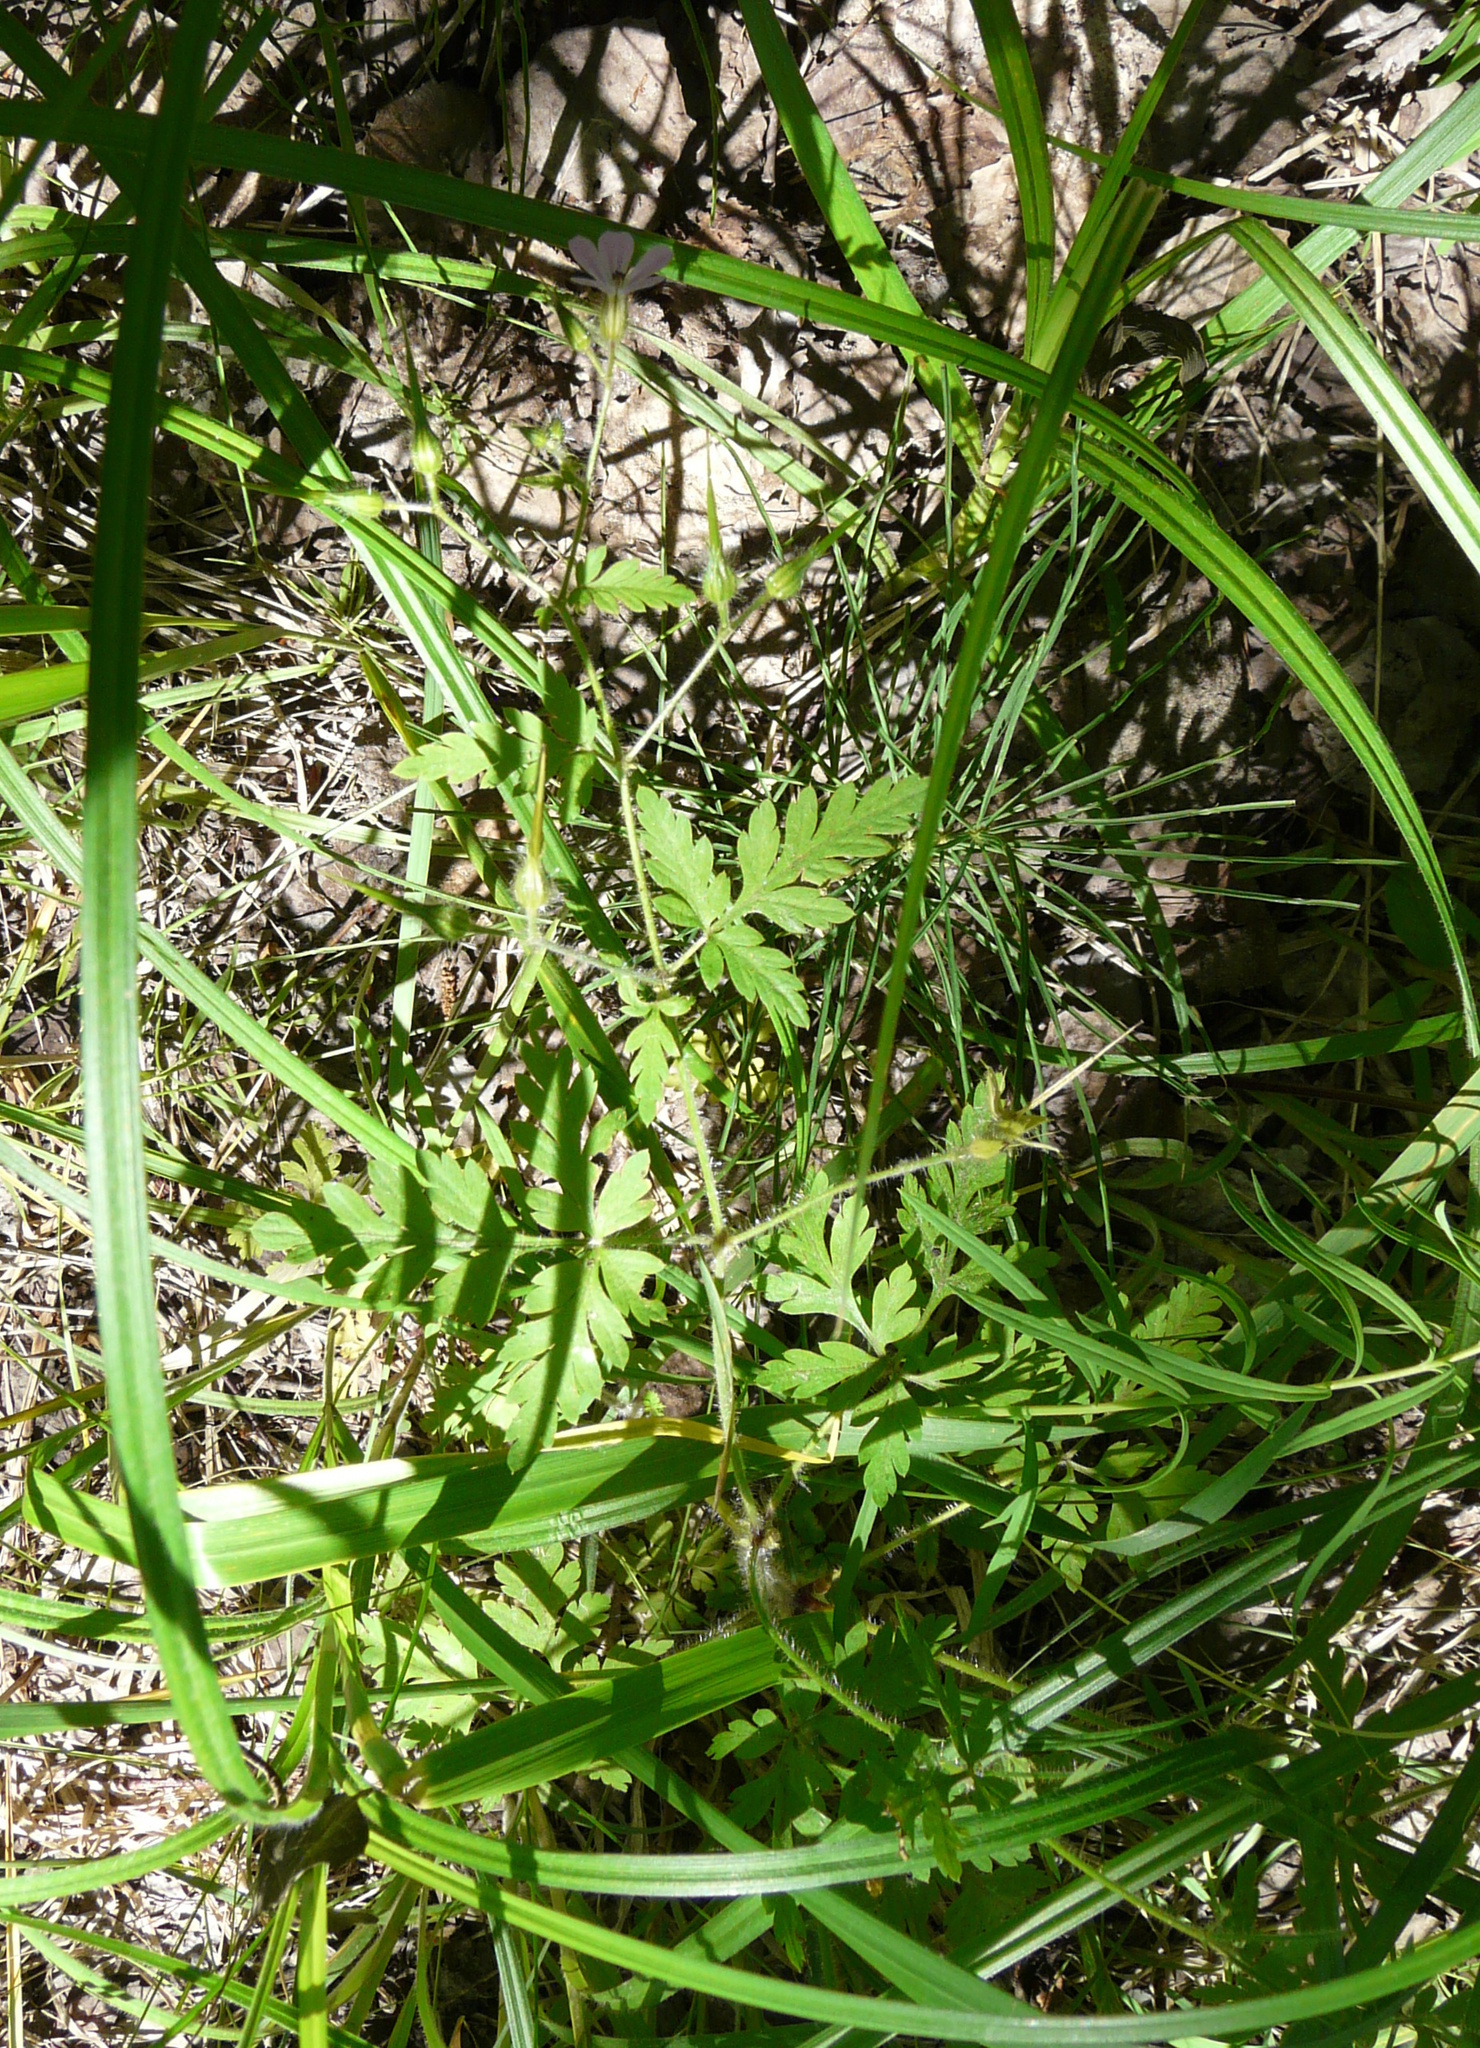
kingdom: Plantae
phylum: Tracheophyta
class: Magnoliopsida
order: Geraniales
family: Geraniaceae
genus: Geranium
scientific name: Geranium robertianum
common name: Herb-robert
